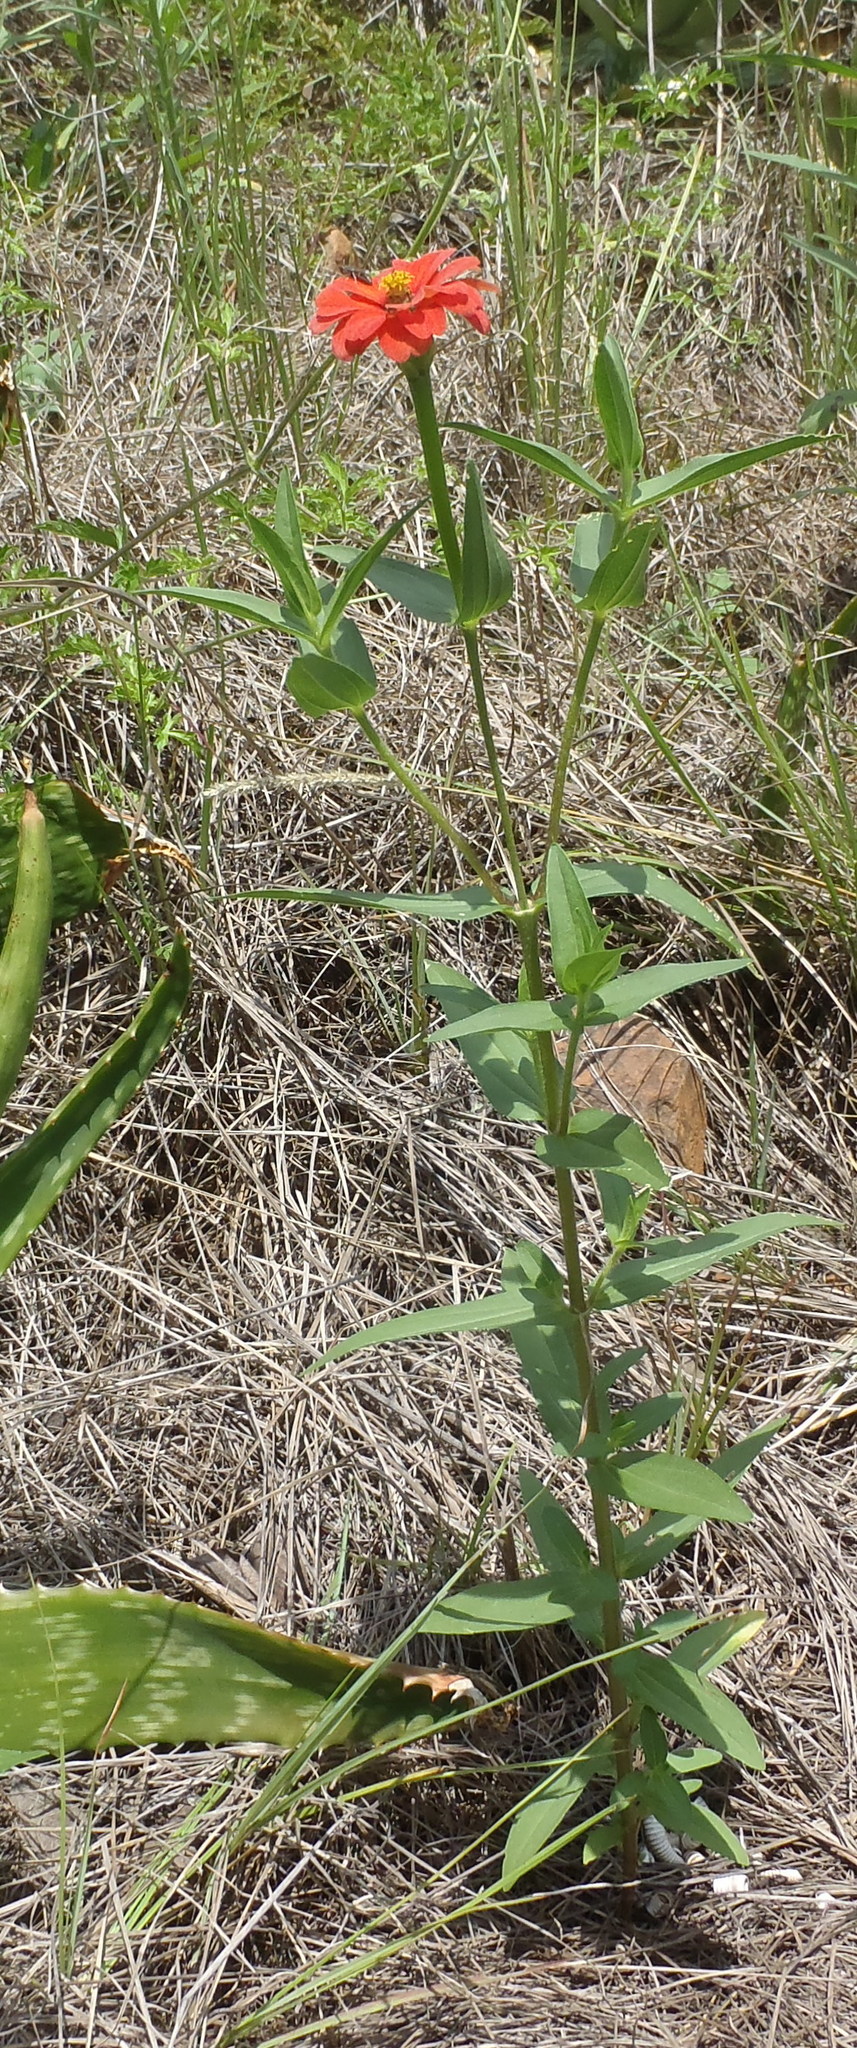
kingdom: Plantae
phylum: Tracheophyta
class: Magnoliopsida
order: Asterales
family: Asteraceae
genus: Zinnia
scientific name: Zinnia peruviana
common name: Peruvian zinnia
